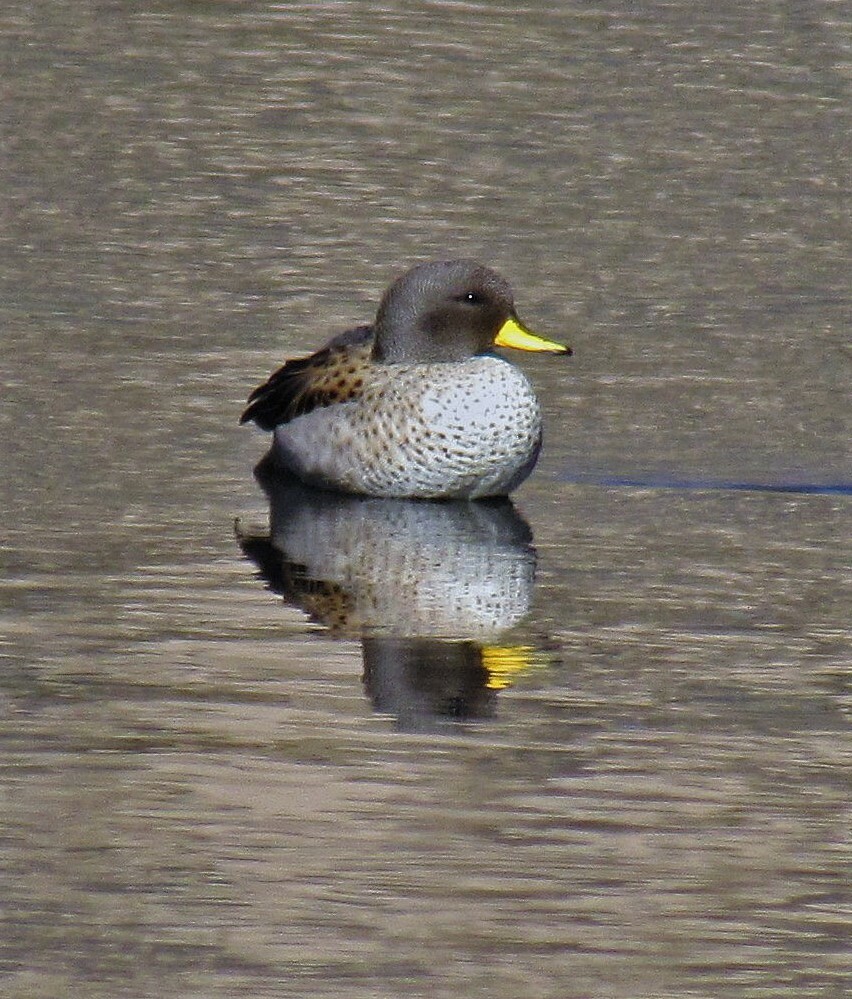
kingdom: Animalia
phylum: Chordata
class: Aves
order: Anseriformes
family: Anatidae
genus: Anas
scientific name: Anas flavirostris
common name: Yellow-billed teal
